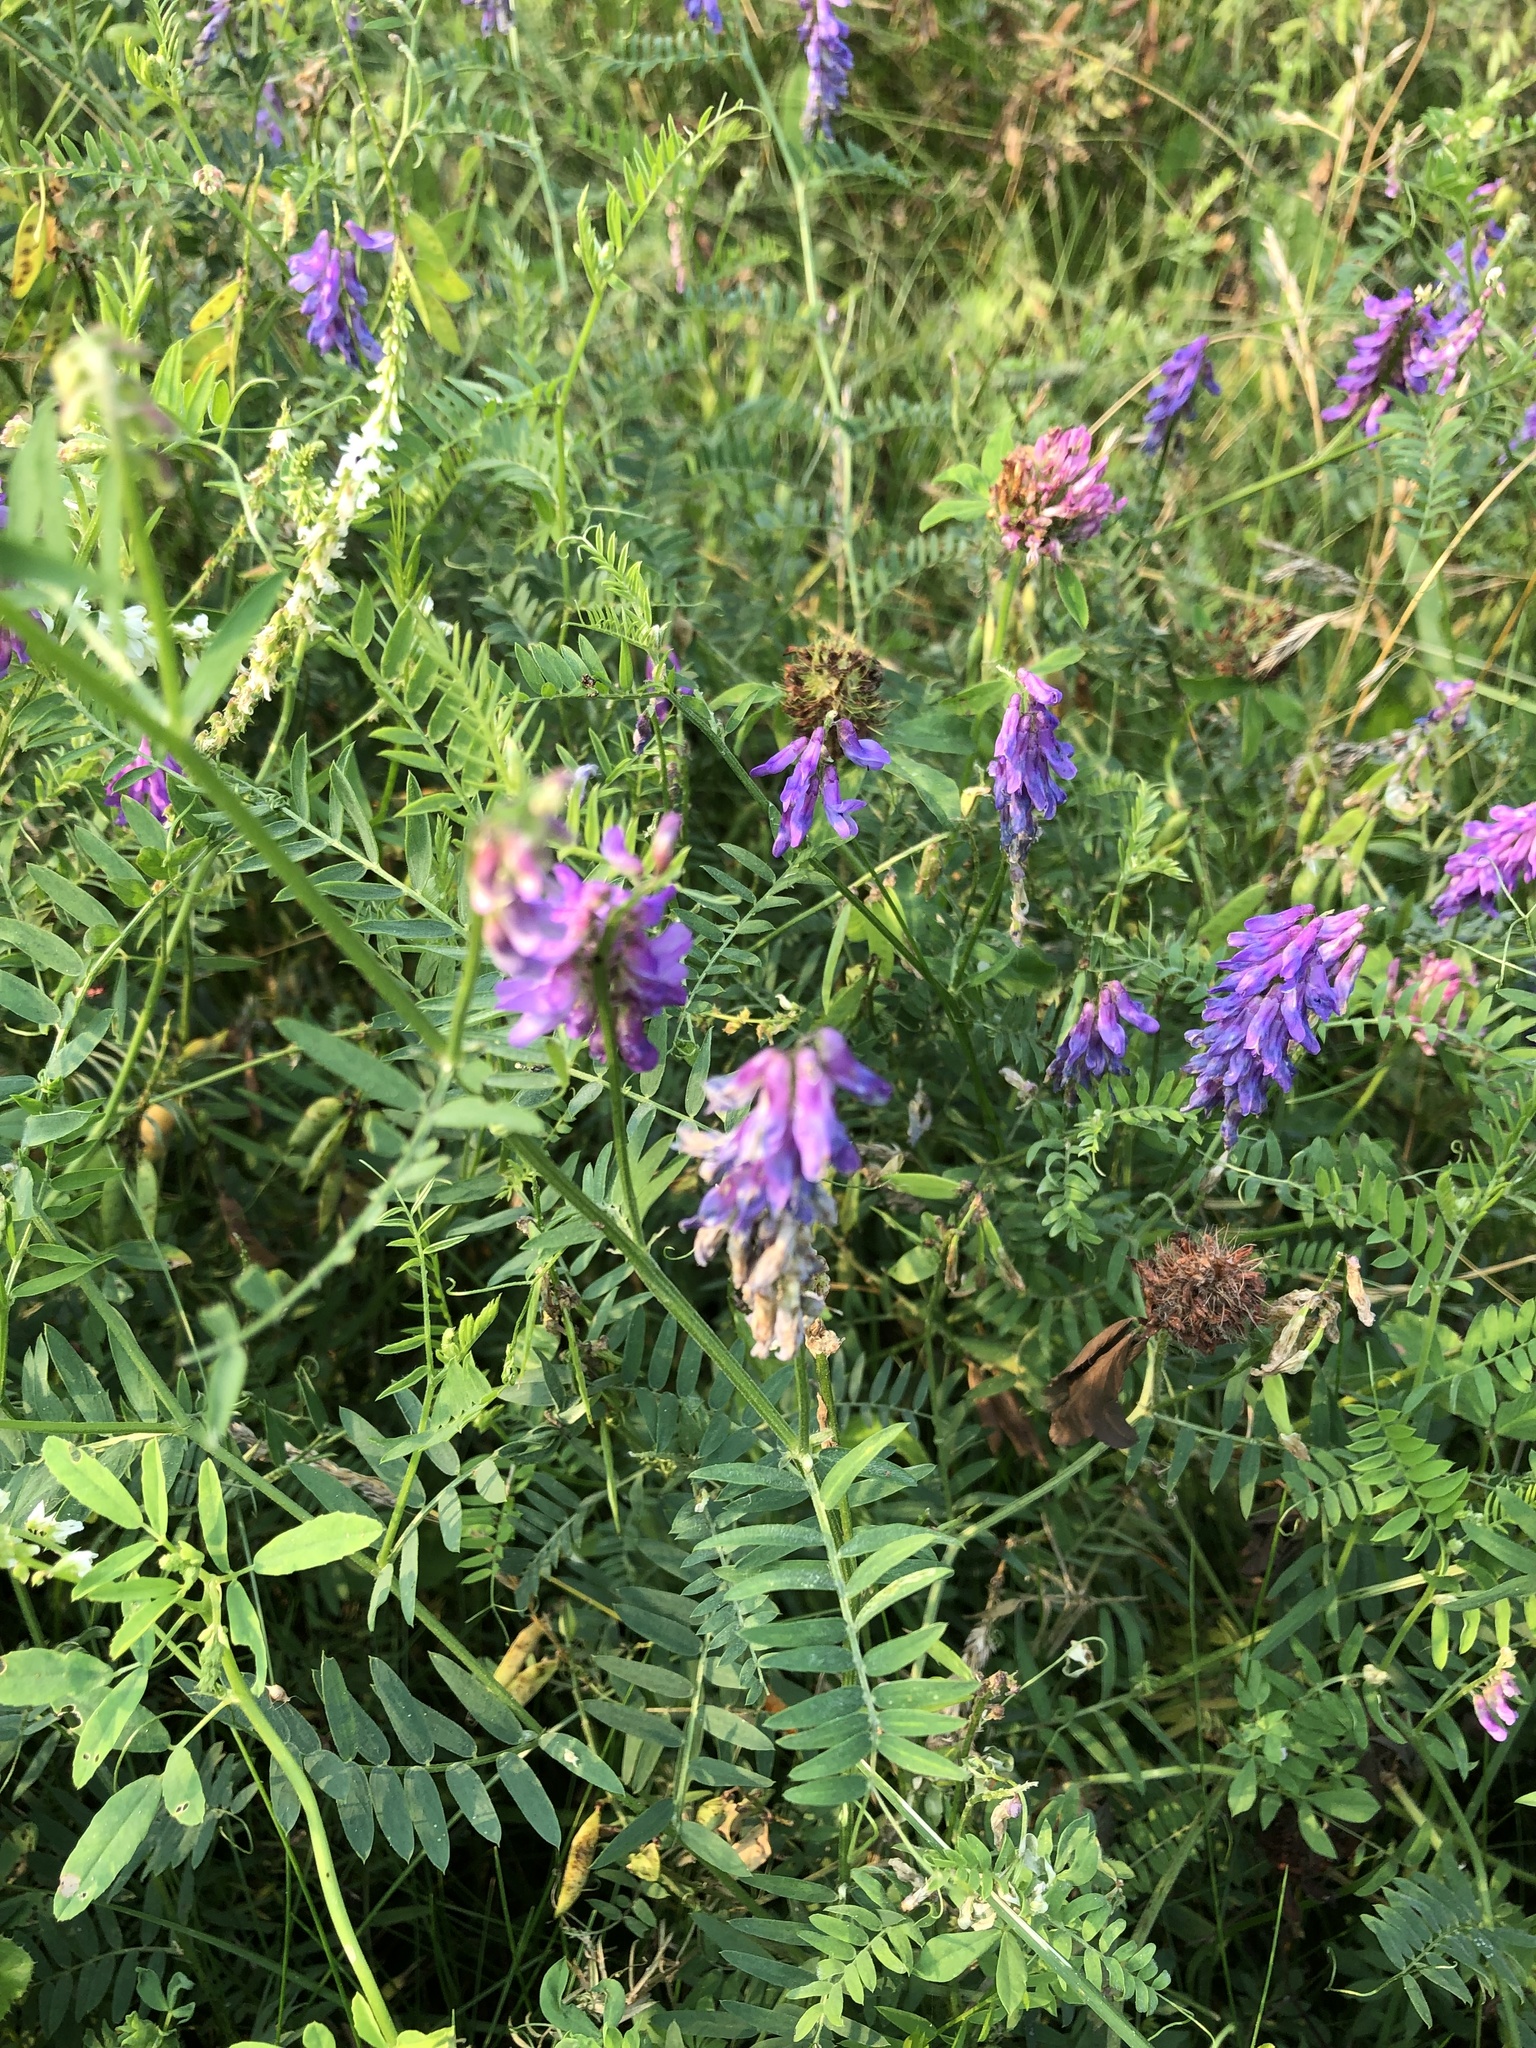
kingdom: Plantae
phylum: Tracheophyta
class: Magnoliopsida
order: Fabales
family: Fabaceae
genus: Vicia
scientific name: Vicia cracca
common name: Bird vetch
